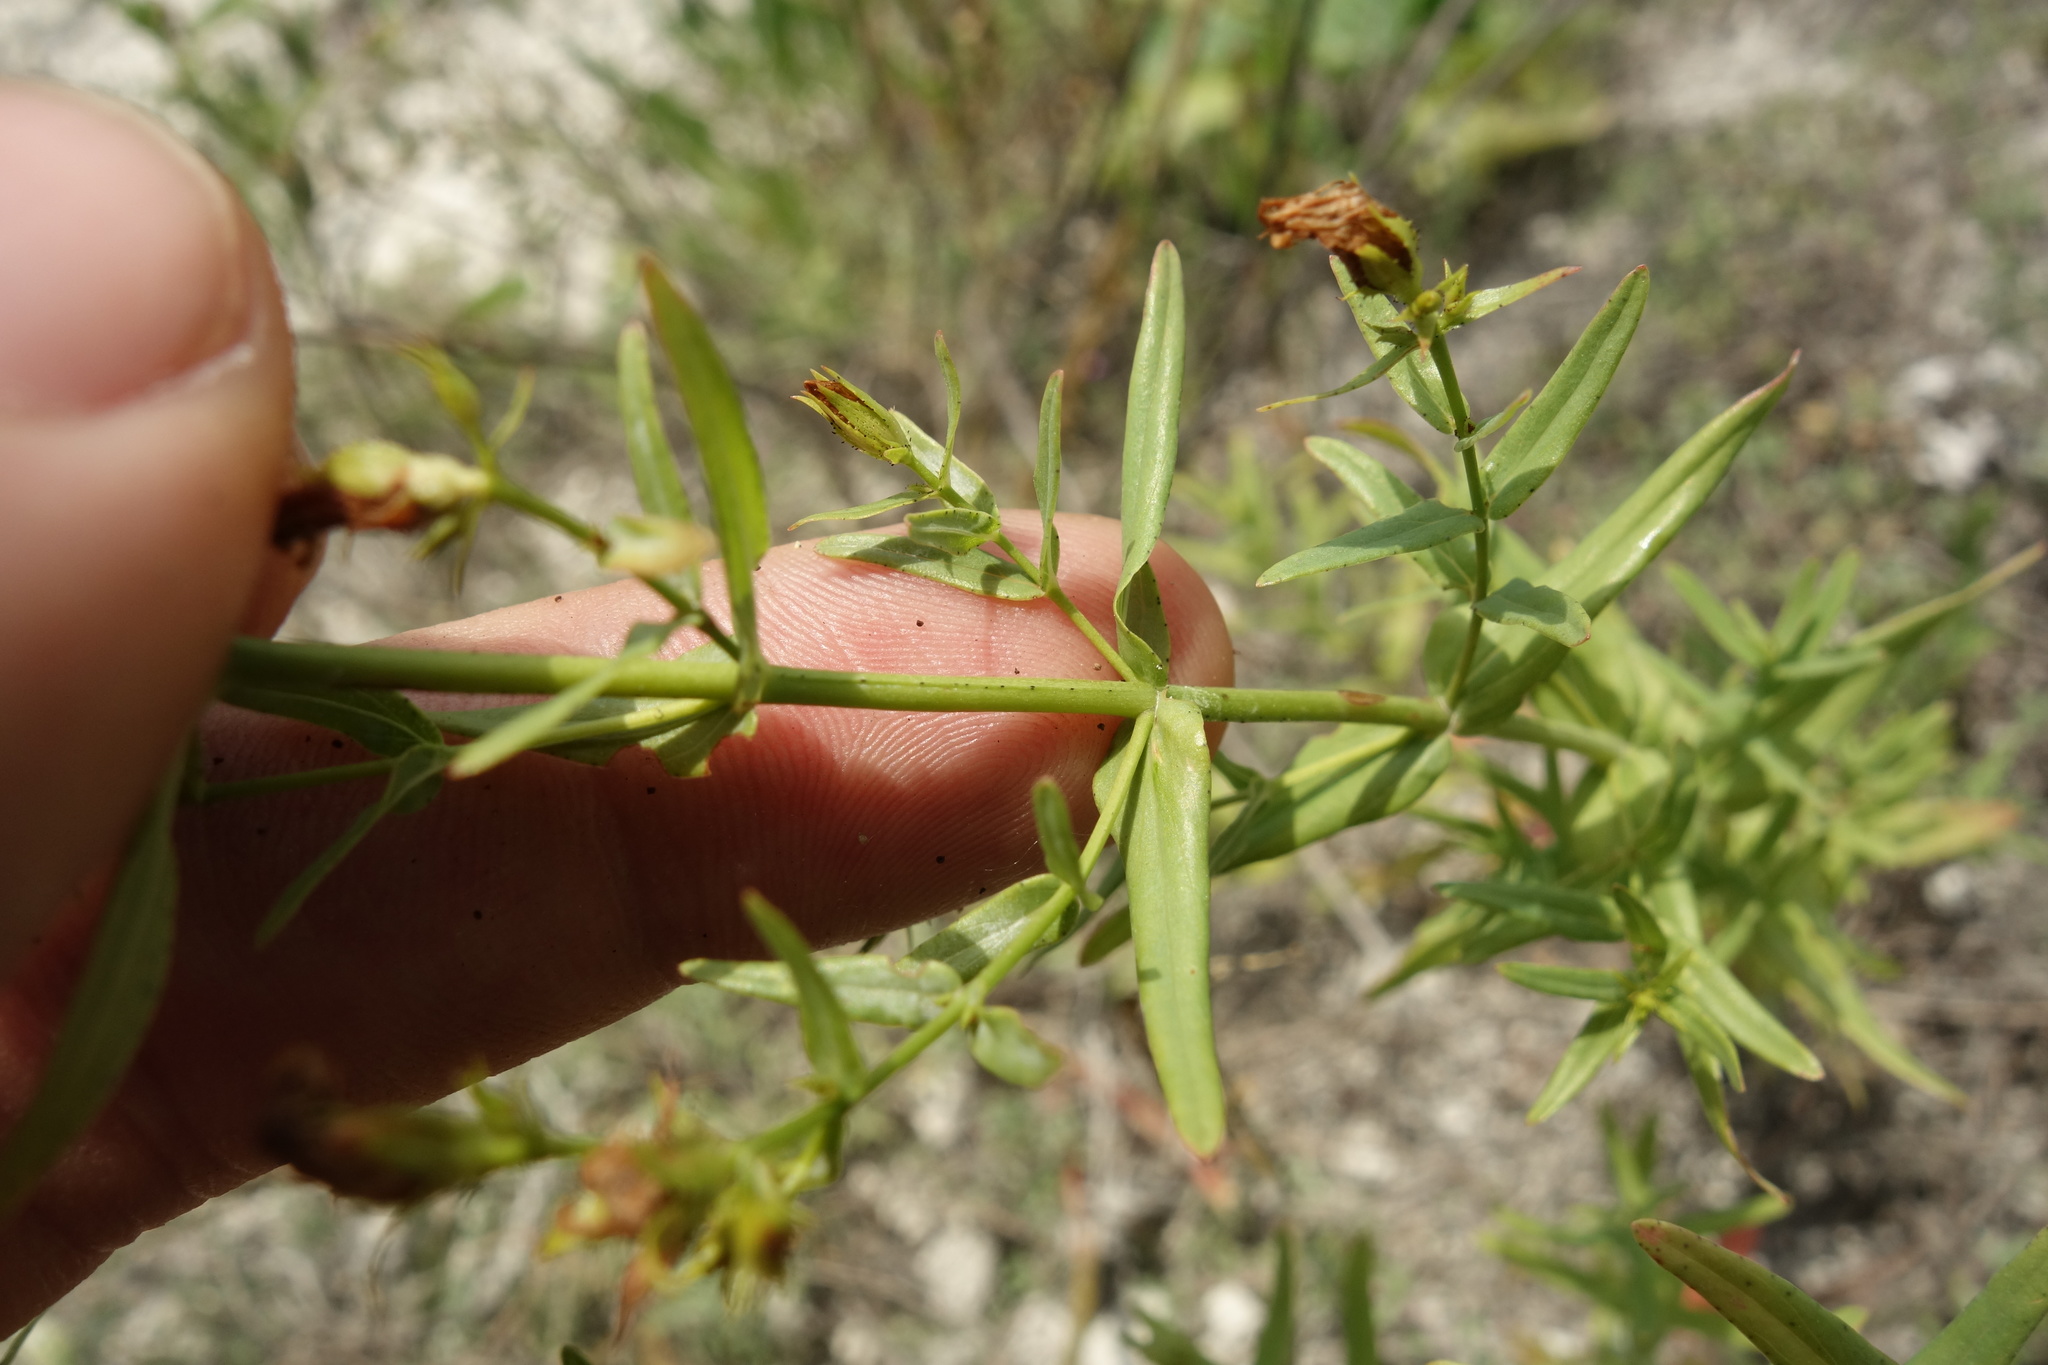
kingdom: Plantae
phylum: Tracheophyta
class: Magnoliopsida
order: Malpighiales
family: Hypericaceae
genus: Hypericum
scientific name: Hypericum elegans
